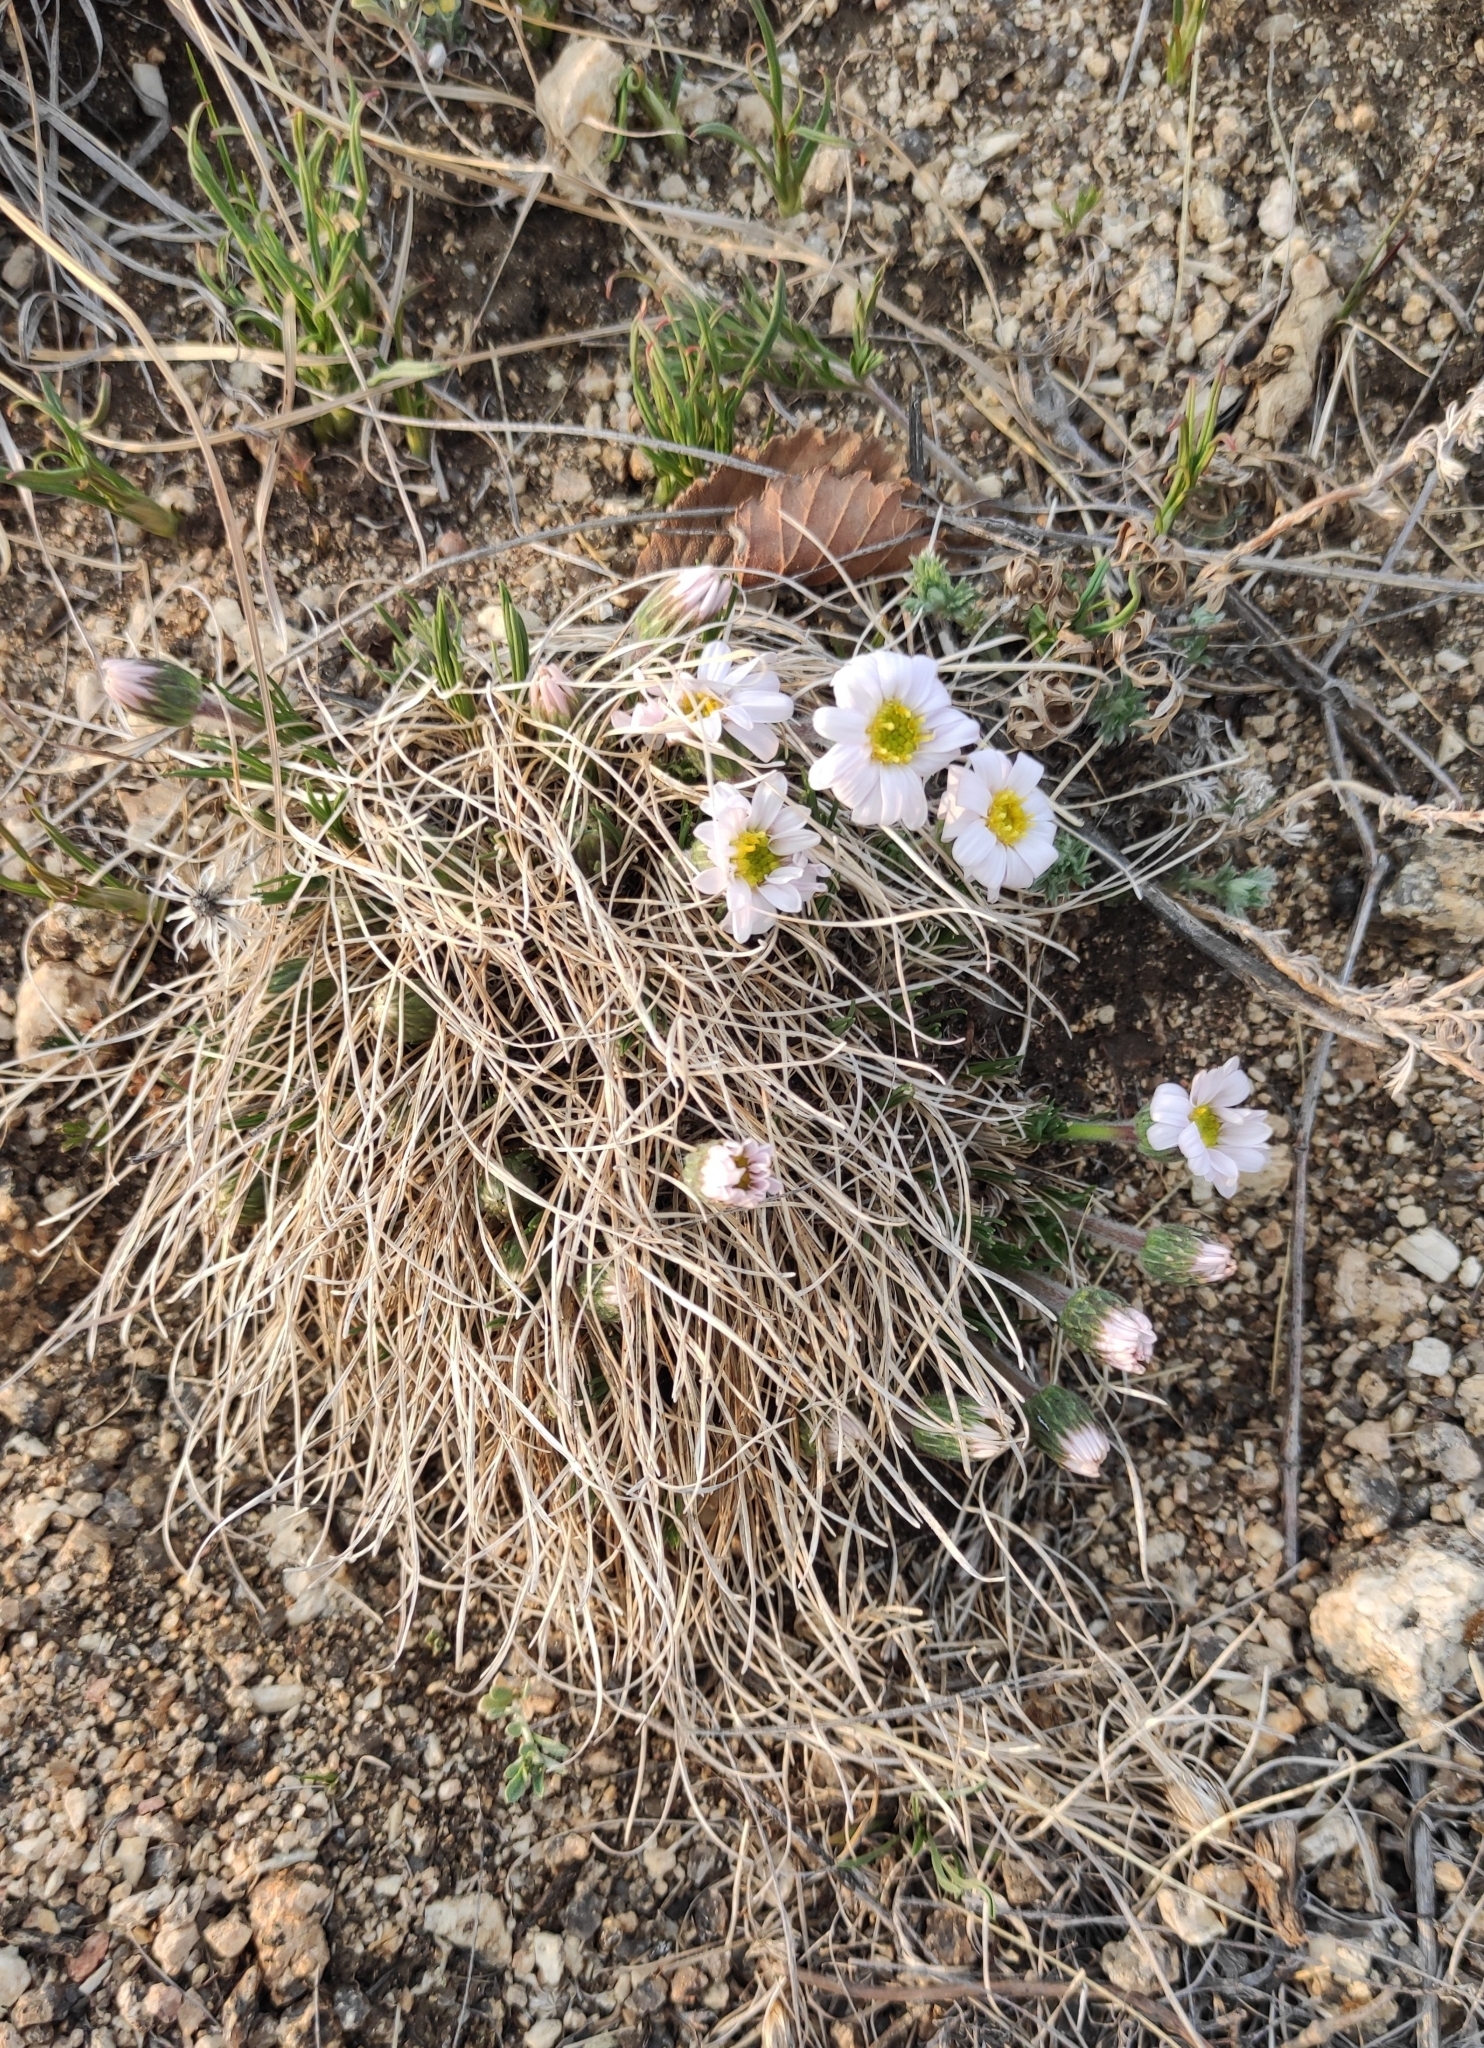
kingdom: Plantae
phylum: Tracheophyta
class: Magnoliopsida
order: Asterales
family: Asteraceae
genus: Arctogeron
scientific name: Arctogeron gramineum
